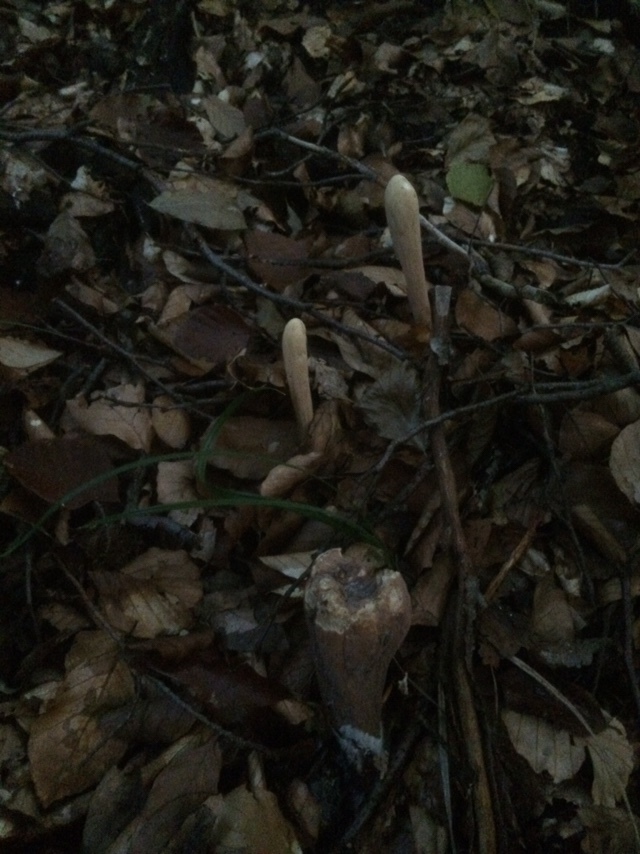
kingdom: Fungi
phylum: Basidiomycota
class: Agaricomycetes
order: Gomphales
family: Clavariadelphaceae
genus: Clavariadelphus
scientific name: Clavariadelphus pistillaris
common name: Giant club
